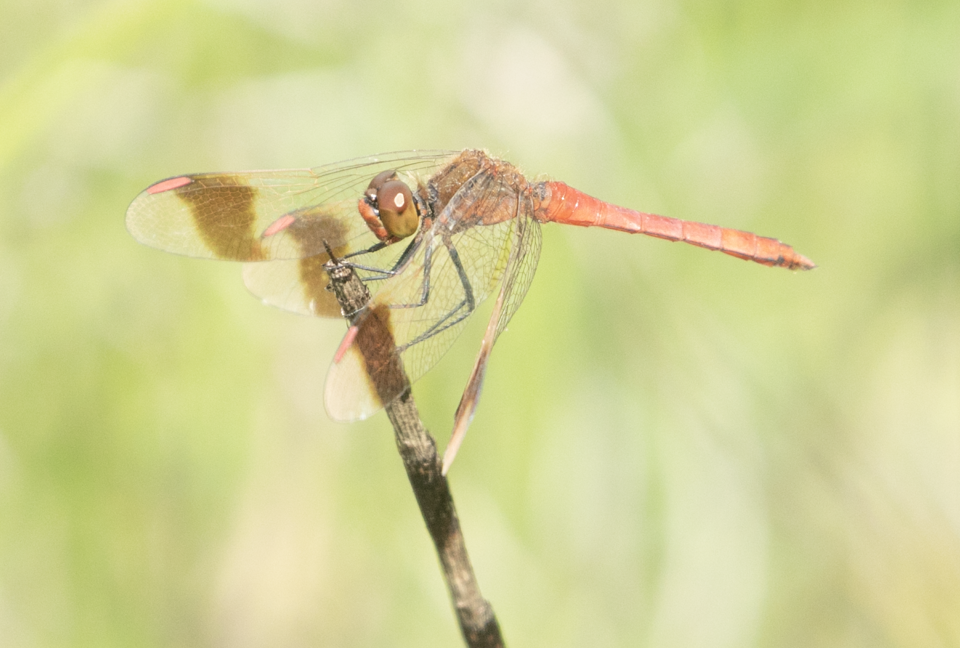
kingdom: Animalia
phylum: Arthropoda
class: Insecta
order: Odonata
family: Libellulidae
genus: Sympetrum
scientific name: Sympetrum pedemontanum
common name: Banded darter
